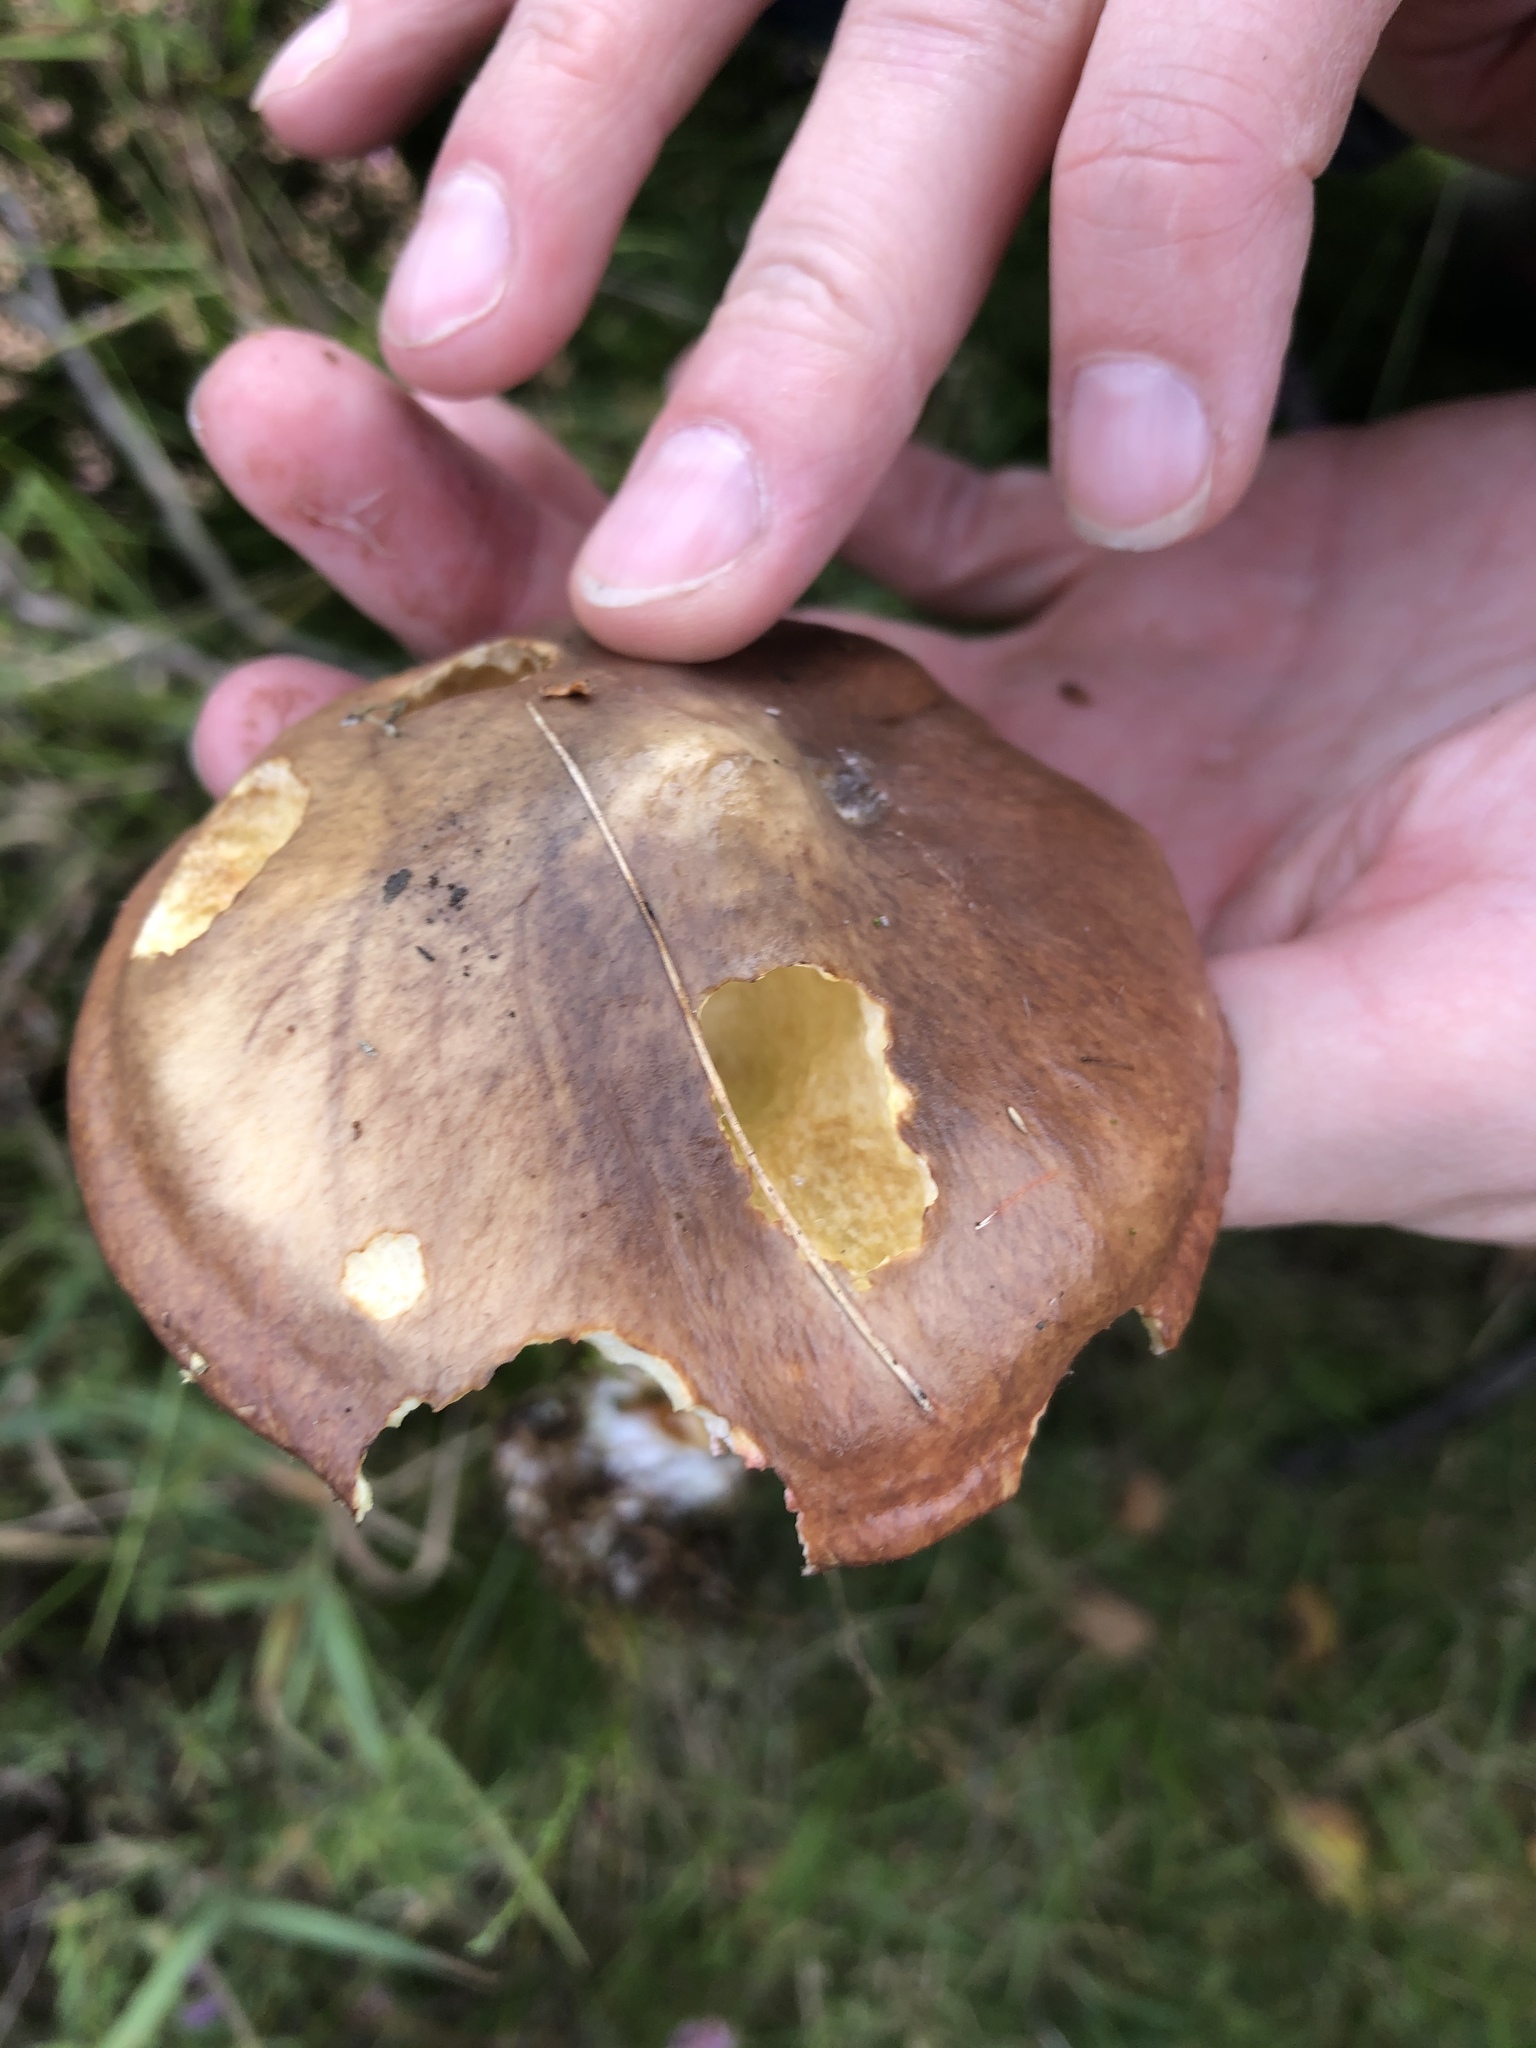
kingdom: Fungi
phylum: Basidiomycota
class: Agaricomycetes
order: Boletales
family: Suillaceae
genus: Suillus
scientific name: Suillus luteus
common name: Slippery jack
